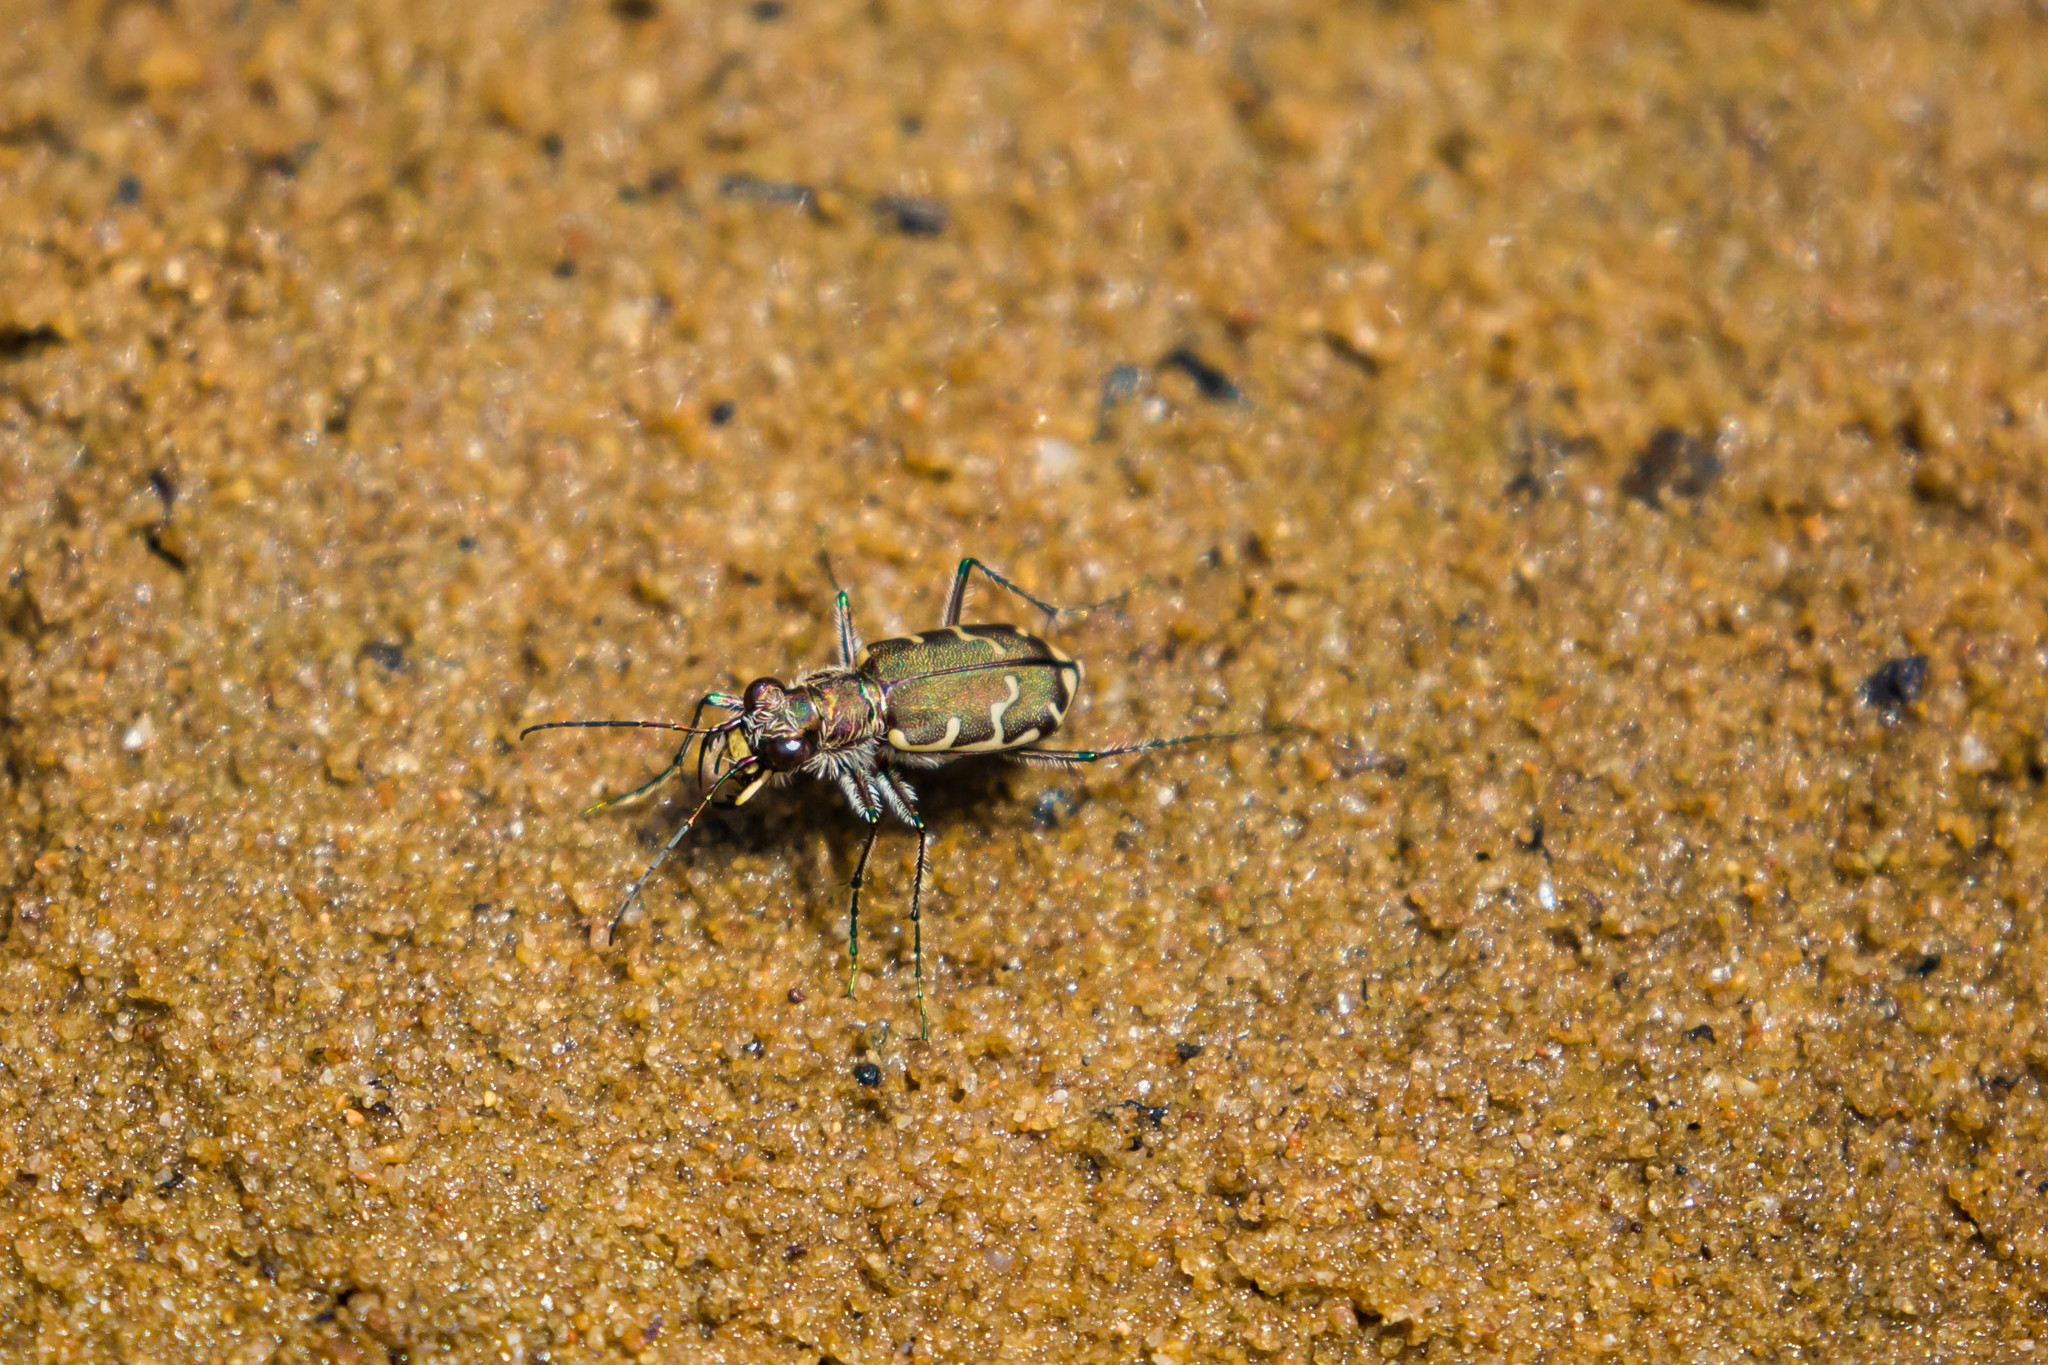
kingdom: Animalia
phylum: Arthropoda
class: Insecta
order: Coleoptera
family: Carabidae
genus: Cicindela
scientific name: Cicindela repanda
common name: Bronzed tiger beetle
